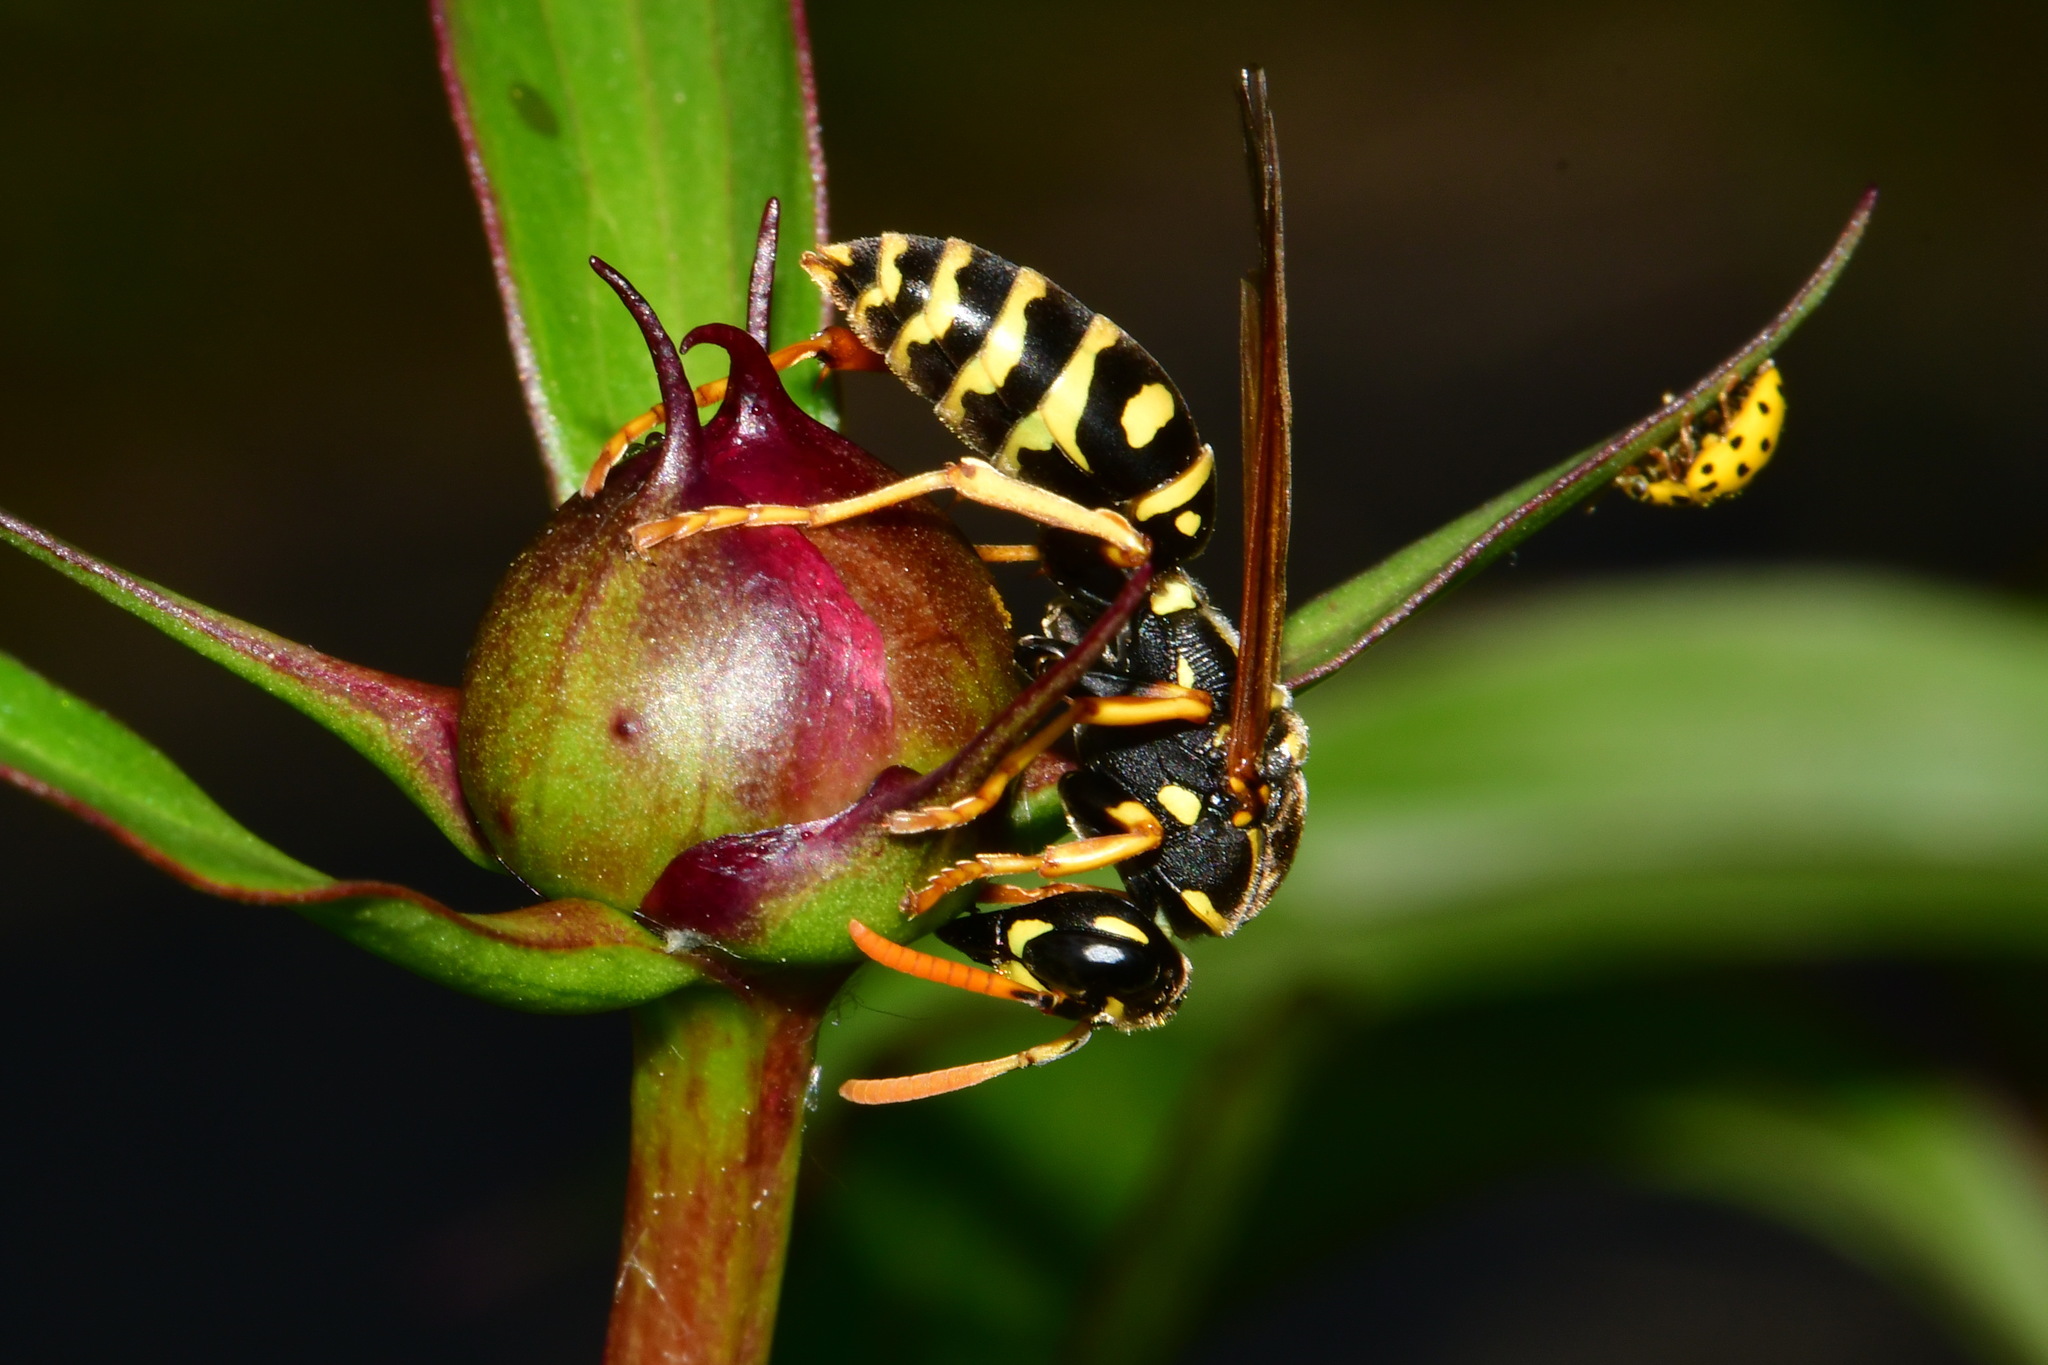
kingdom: Animalia
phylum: Arthropoda
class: Insecta
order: Hymenoptera
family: Eumenidae
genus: Polistes
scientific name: Polistes dominula
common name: Paper wasp
